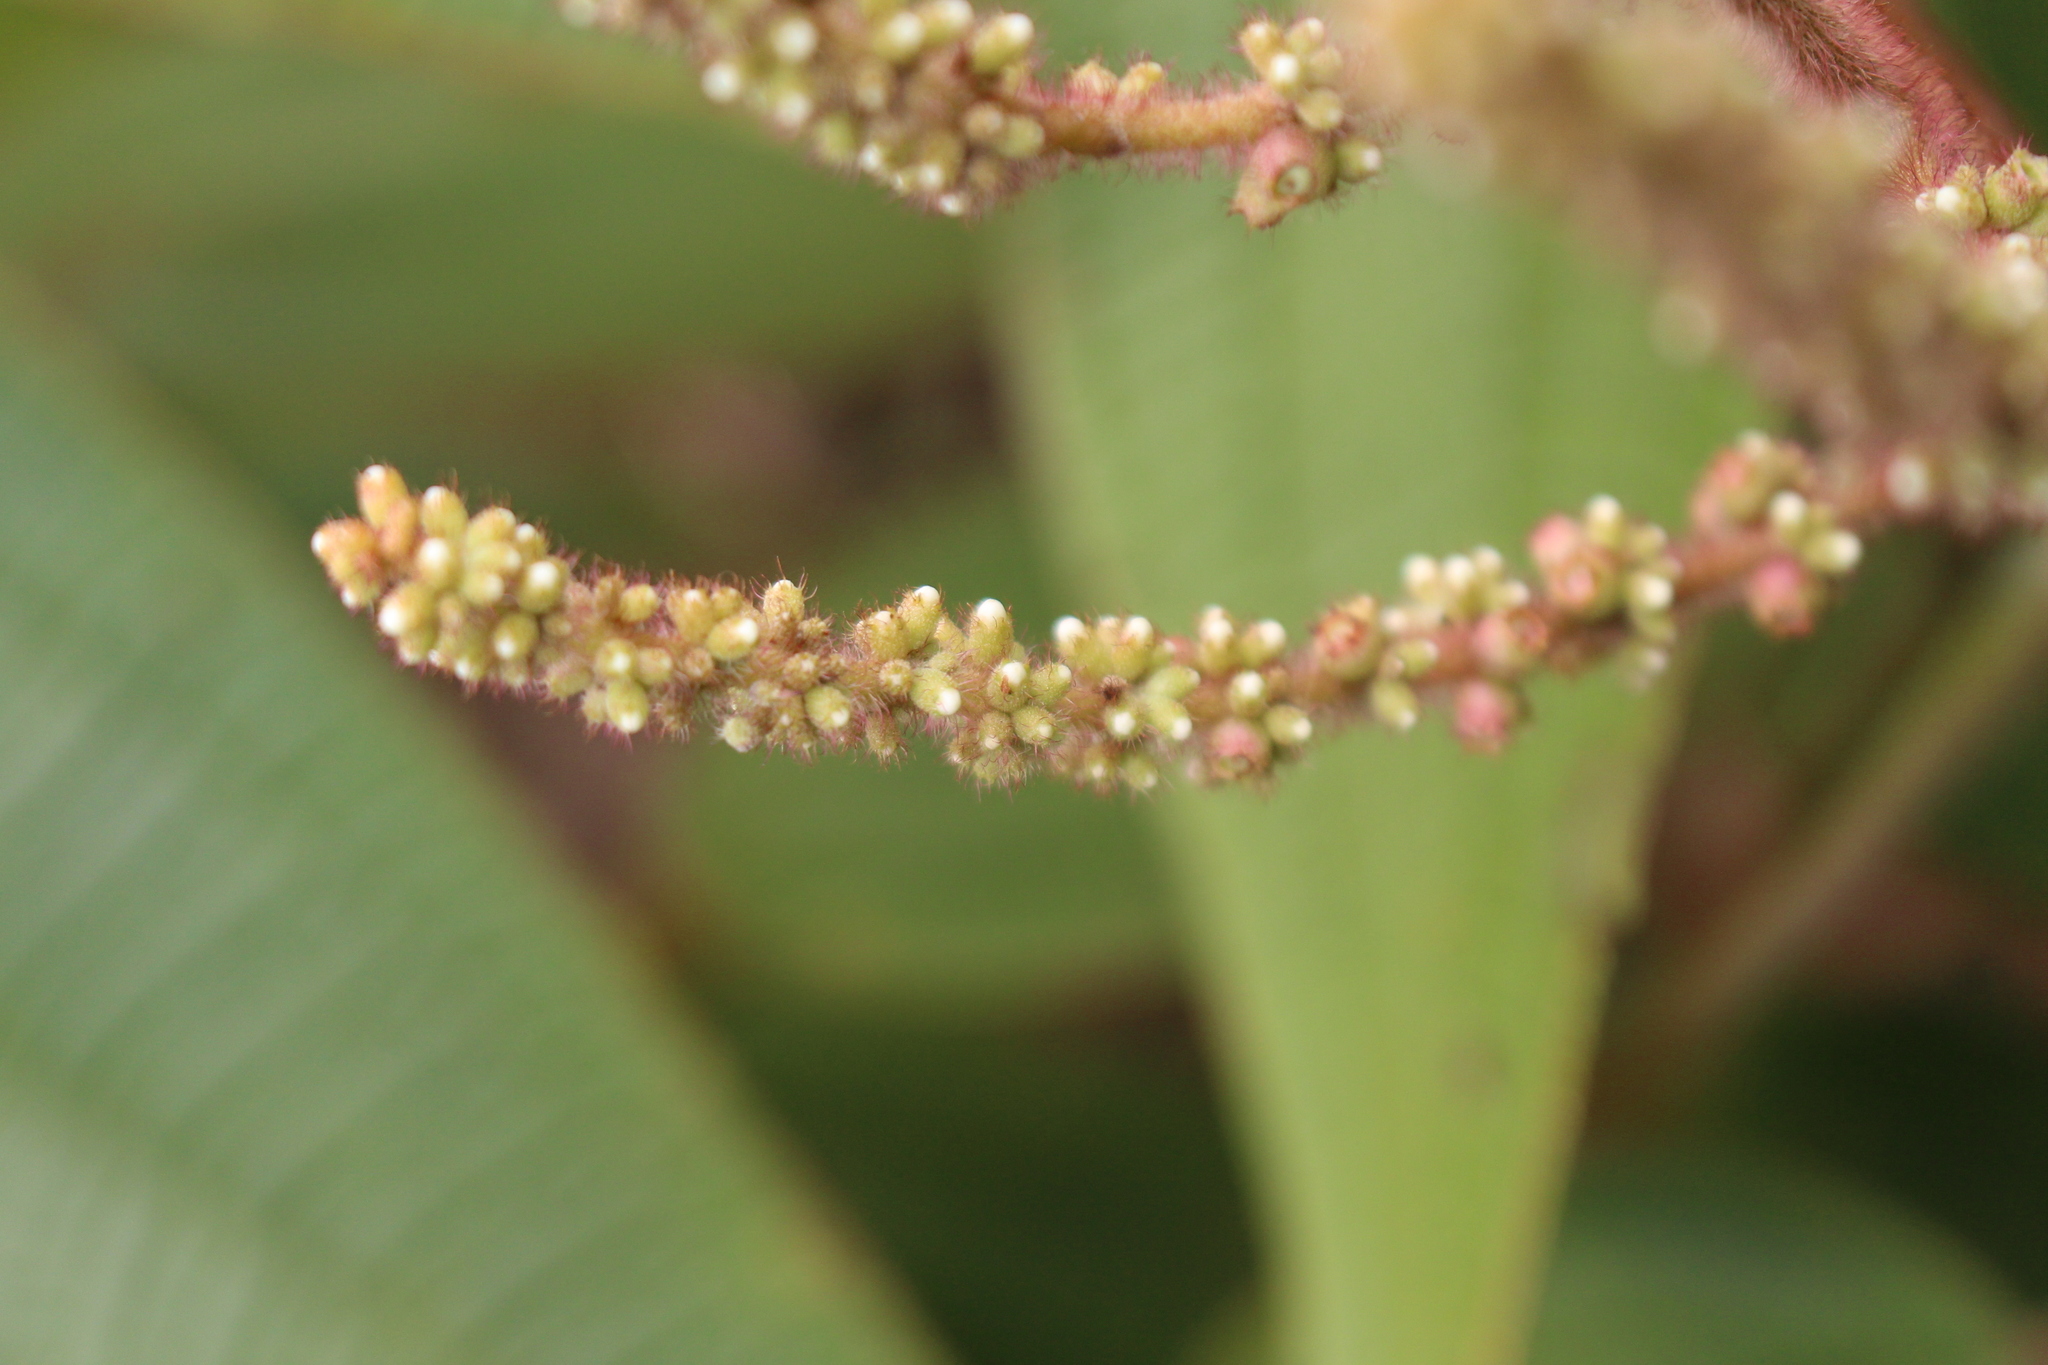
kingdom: Plantae
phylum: Tracheophyta
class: Magnoliopsida
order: Myrtales
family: Melastomataceae
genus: Miconia
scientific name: Miconia aeruginosa
